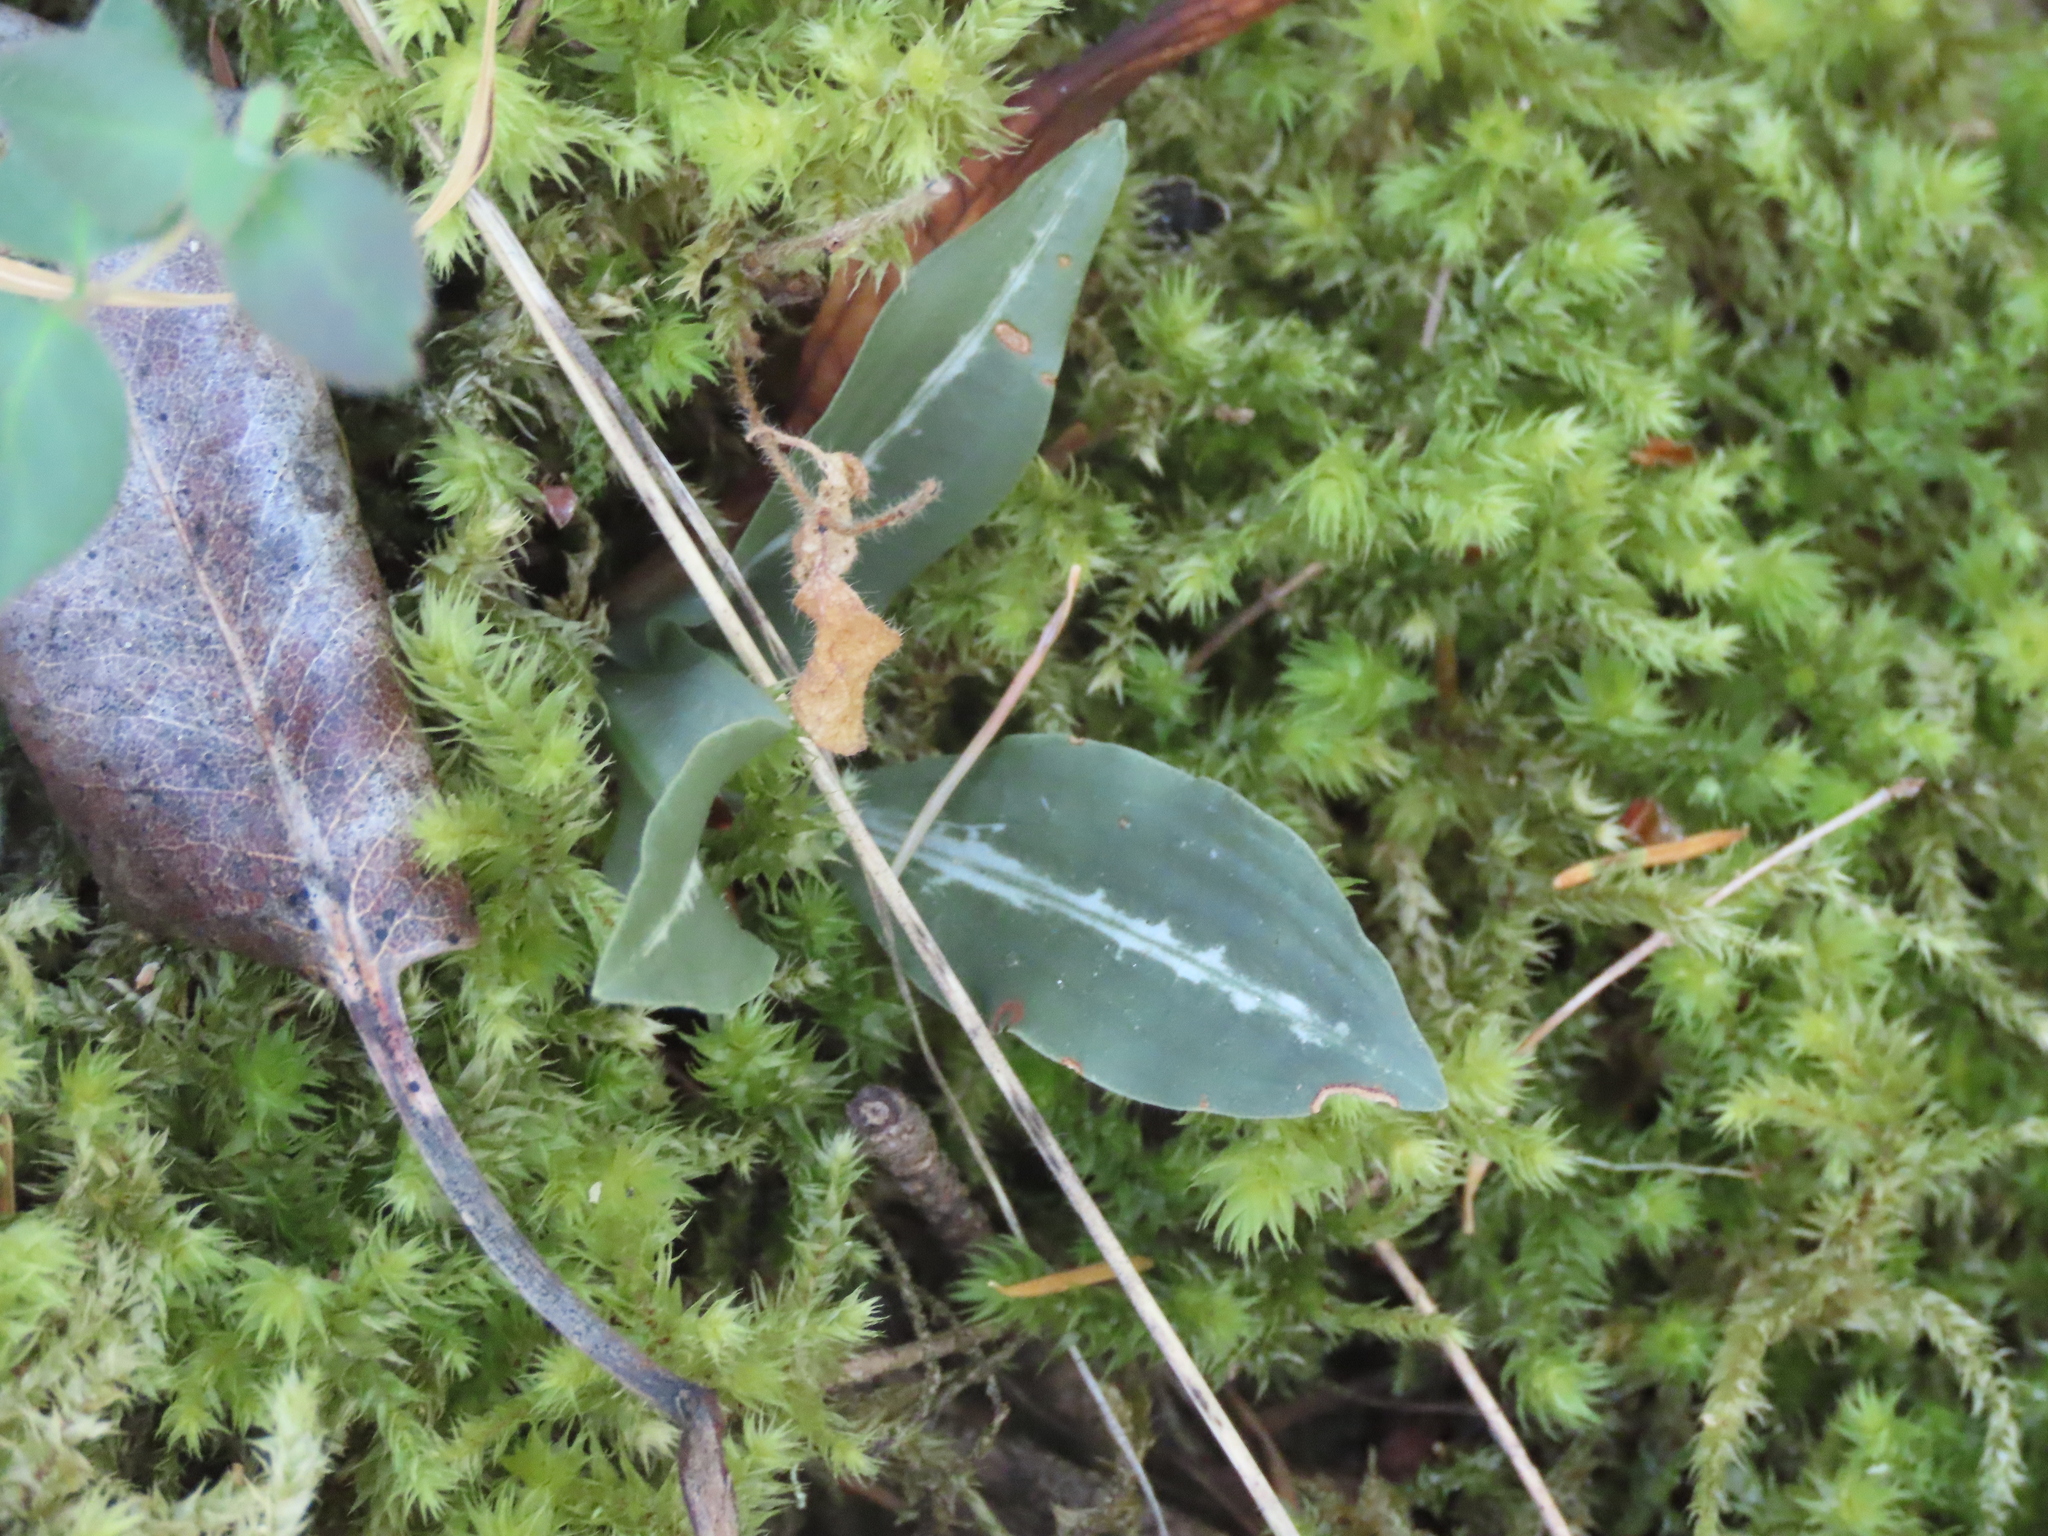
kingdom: Plantae
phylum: Tracheophyta
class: Liliopsida
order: Asparagales
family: Orchidaceae
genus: Goodyera
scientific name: Goodyera oblongifolia
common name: Giant rattlesnake-plantain
